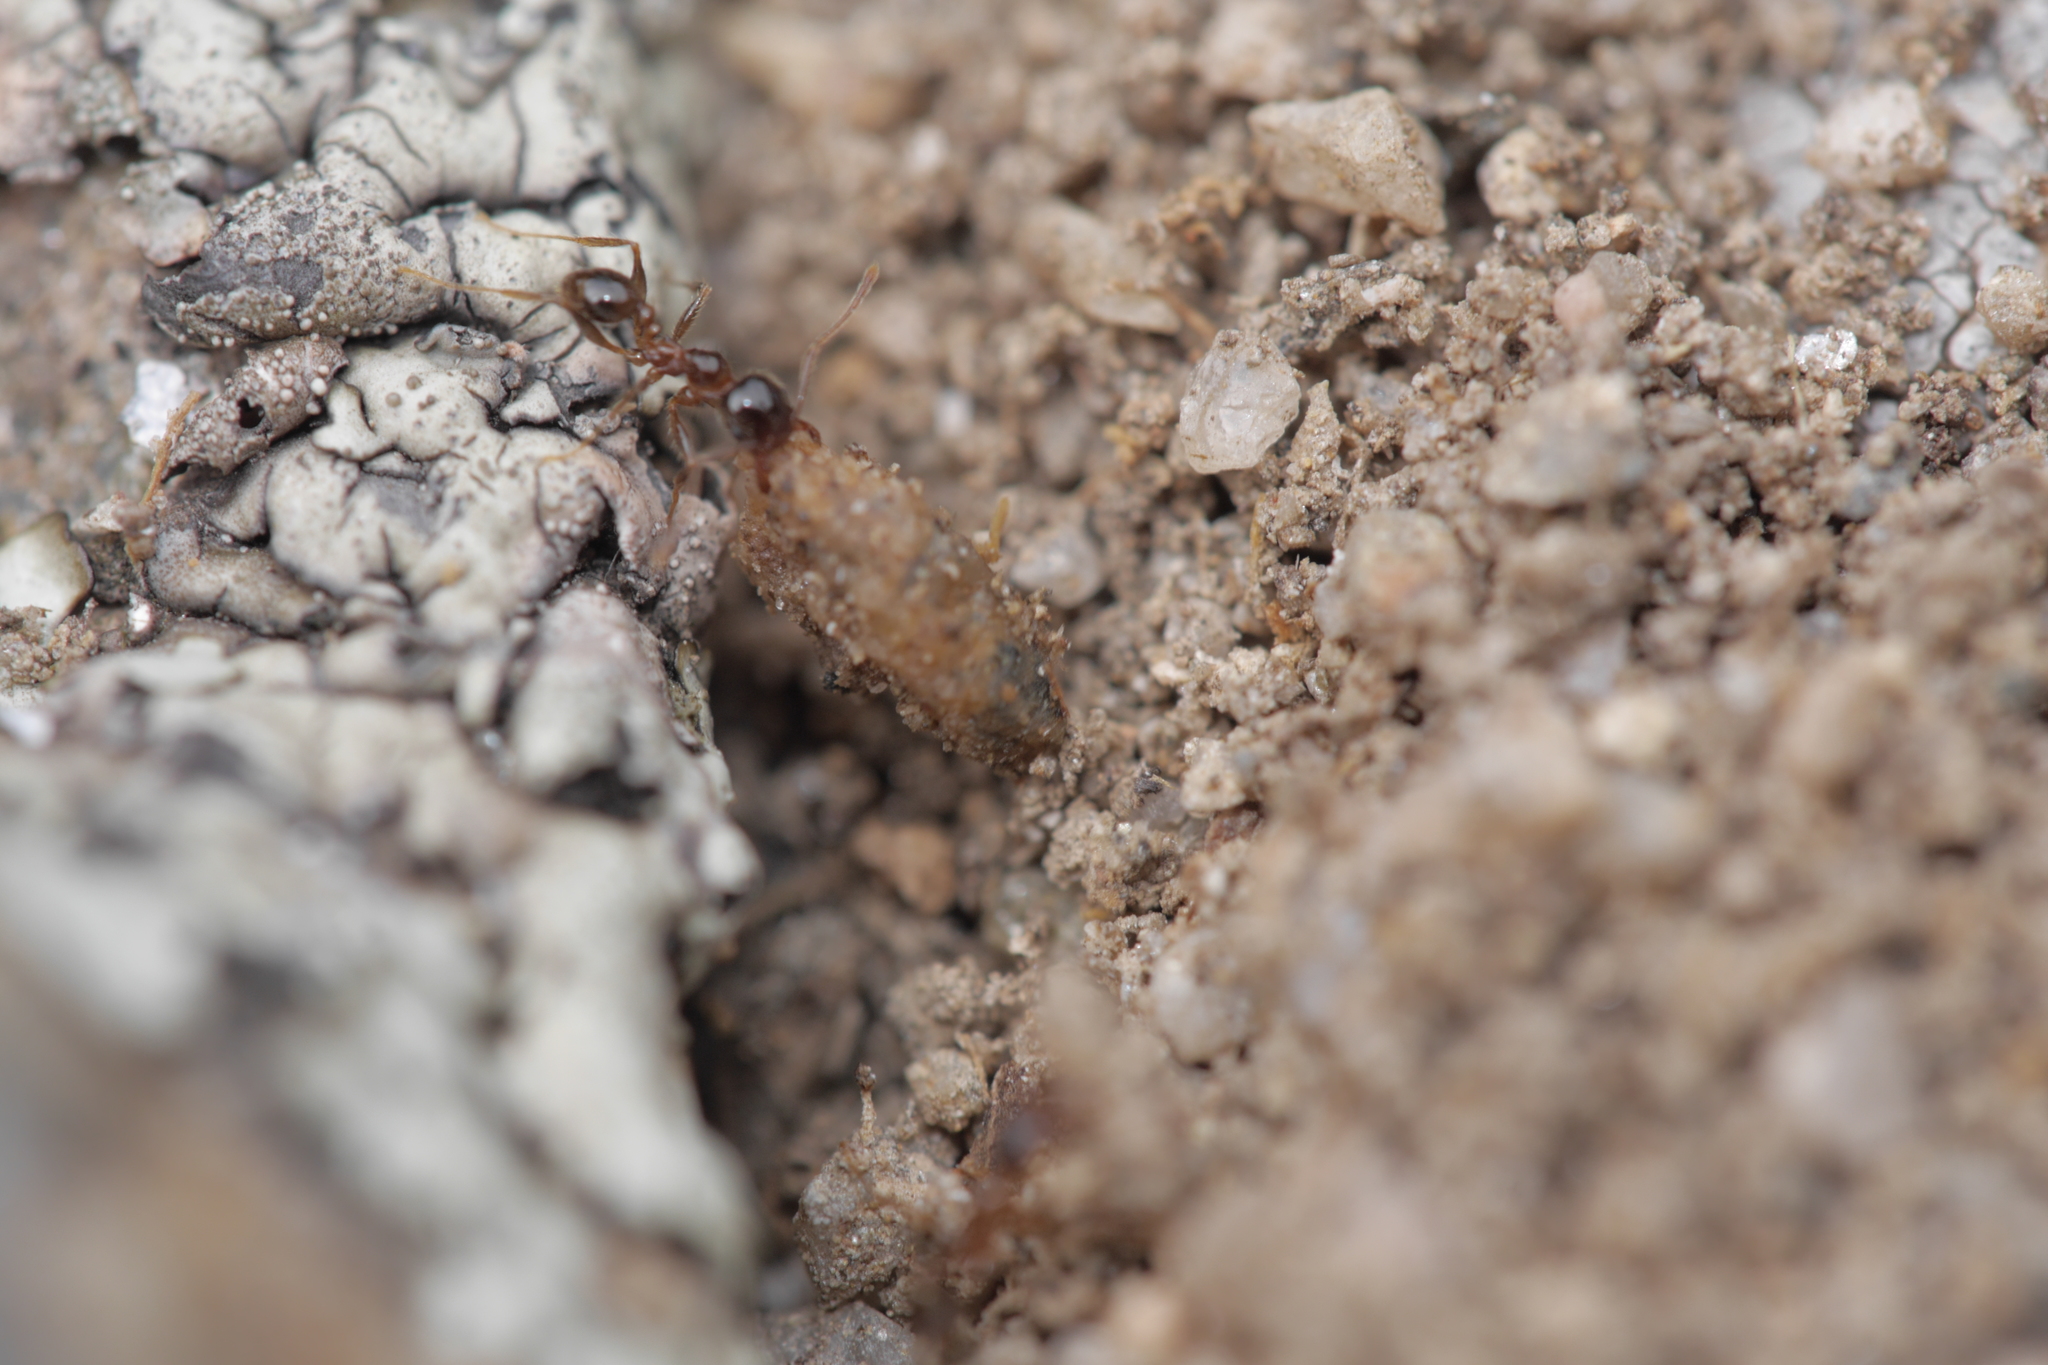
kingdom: Animalia
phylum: Arthropoda
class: Insecta
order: Hymenoptera
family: Formicidae
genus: Pheidole
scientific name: Pheidole pallidula
